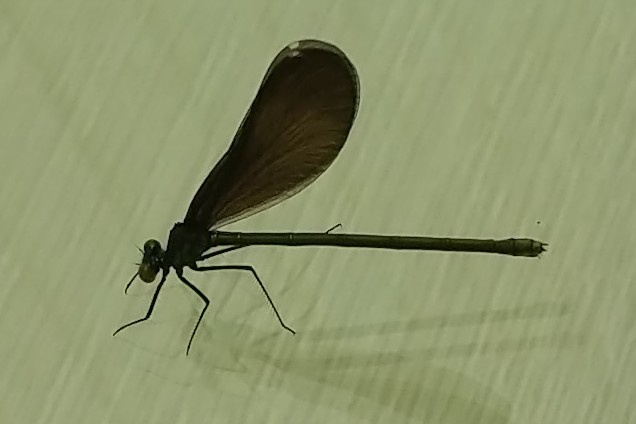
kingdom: Animalia
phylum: Arthropoda
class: Insecta
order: Odonata
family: Calopterygidae
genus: Calopteryx
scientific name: Calopteryx maculata
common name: Ebony jewelwing
